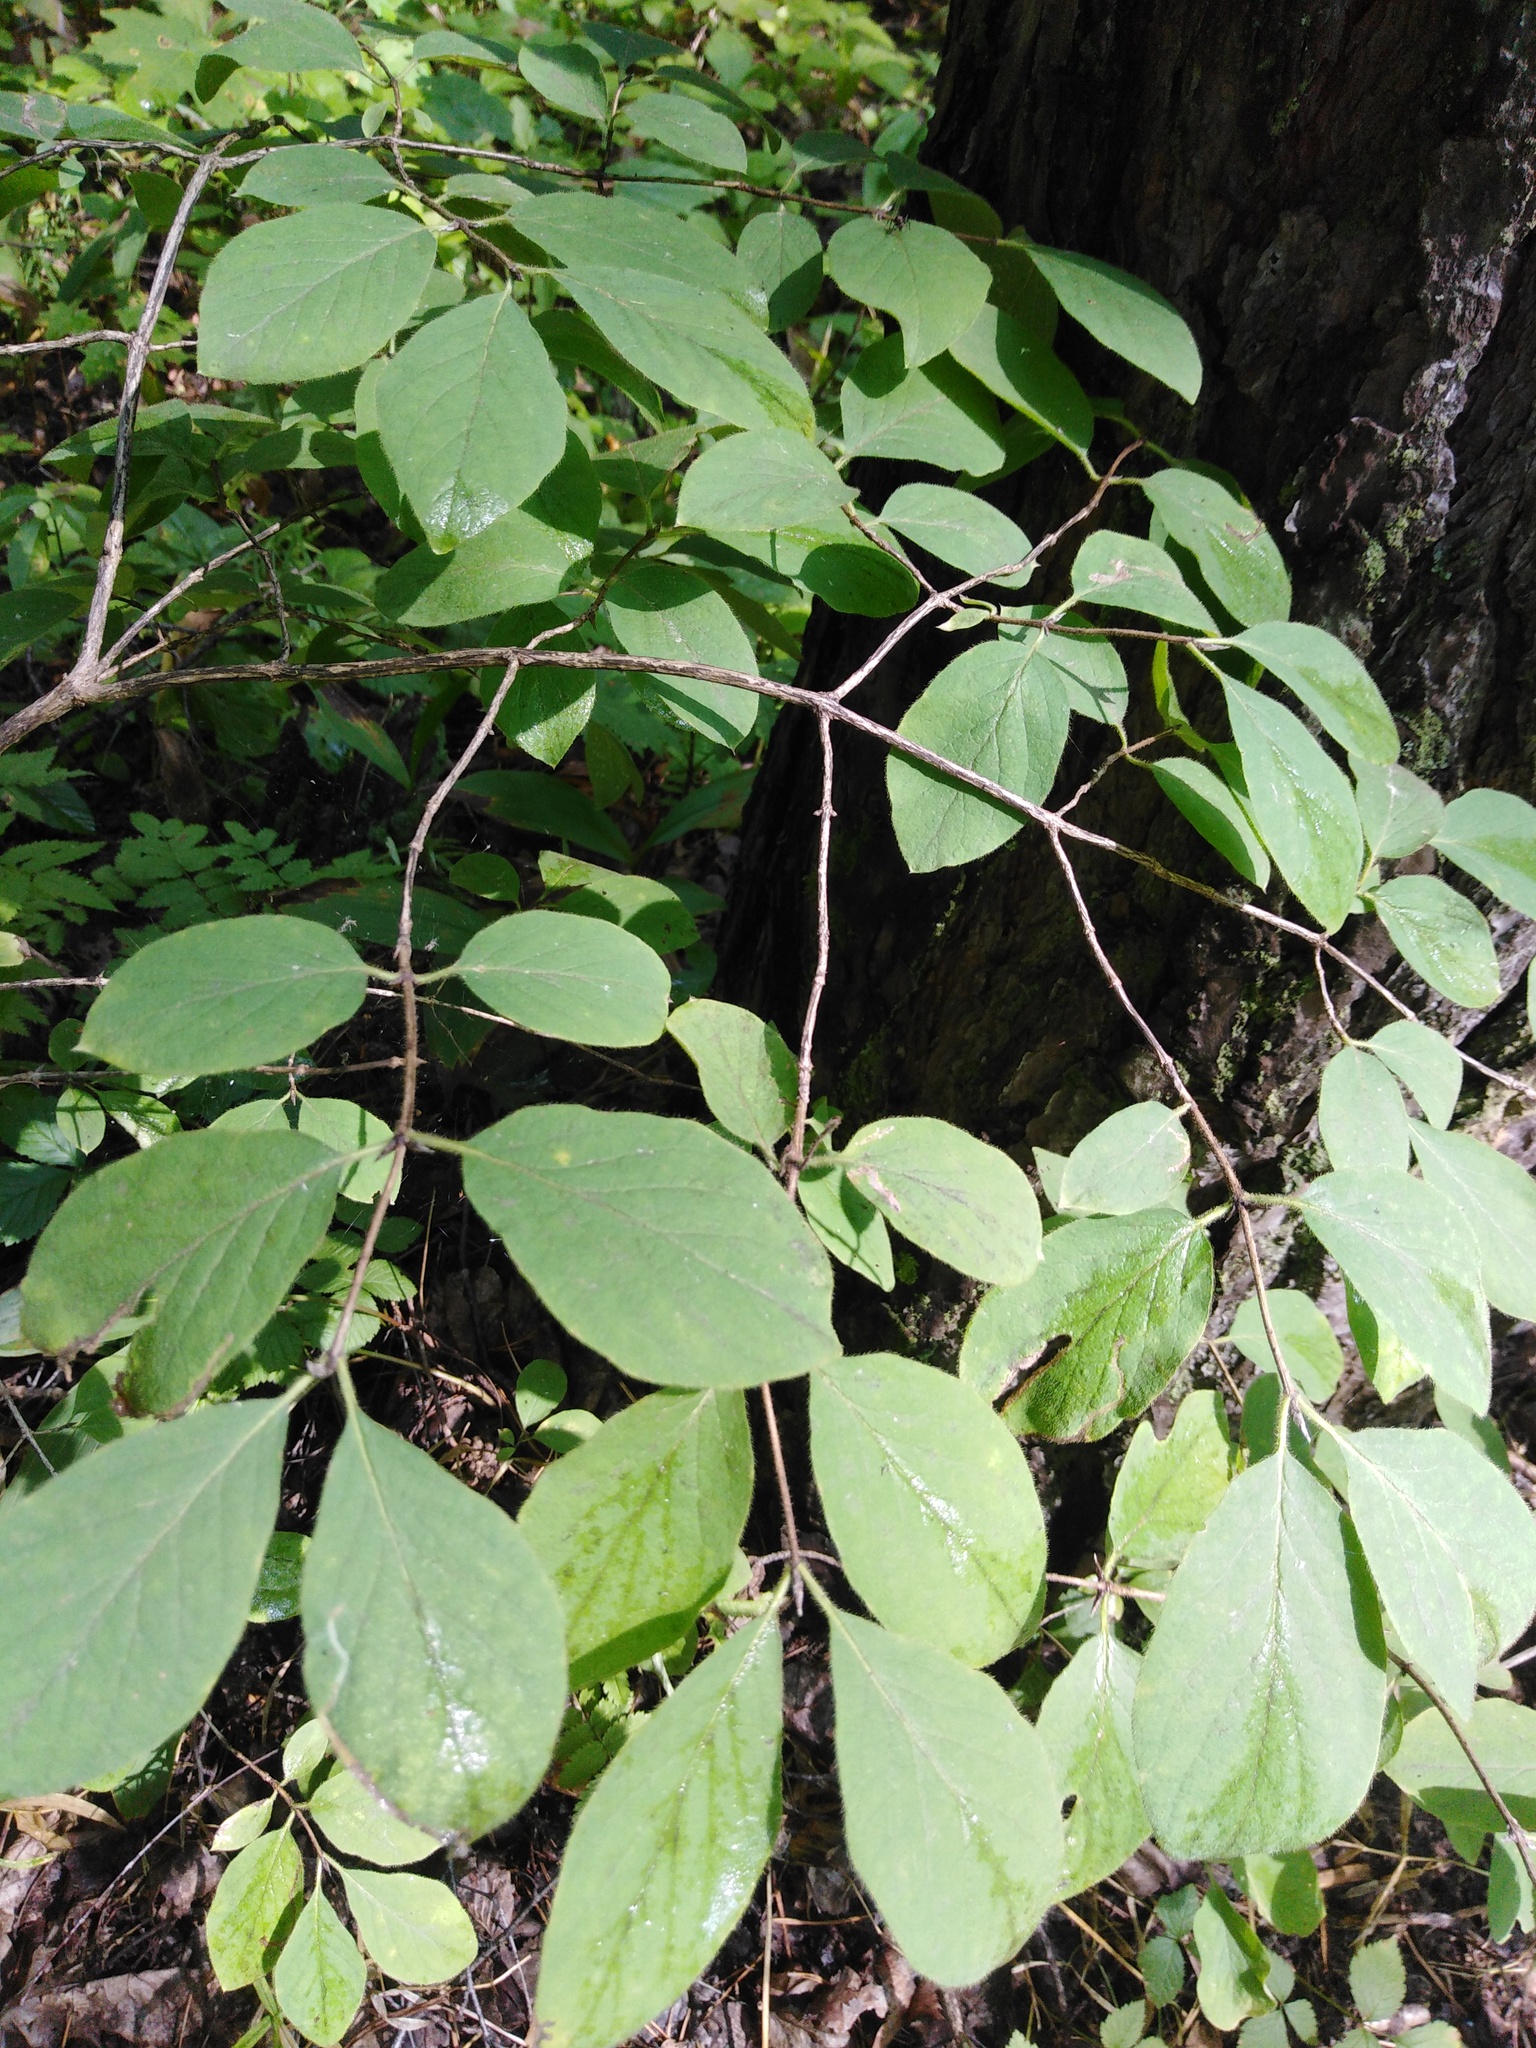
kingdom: Plantae
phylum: Tracheophyta
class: Magnoliopsida
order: Dipsacales
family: Caprifoliaceae
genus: Lonicera
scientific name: Lonicera xylosteum
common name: Fly honeysuckle
